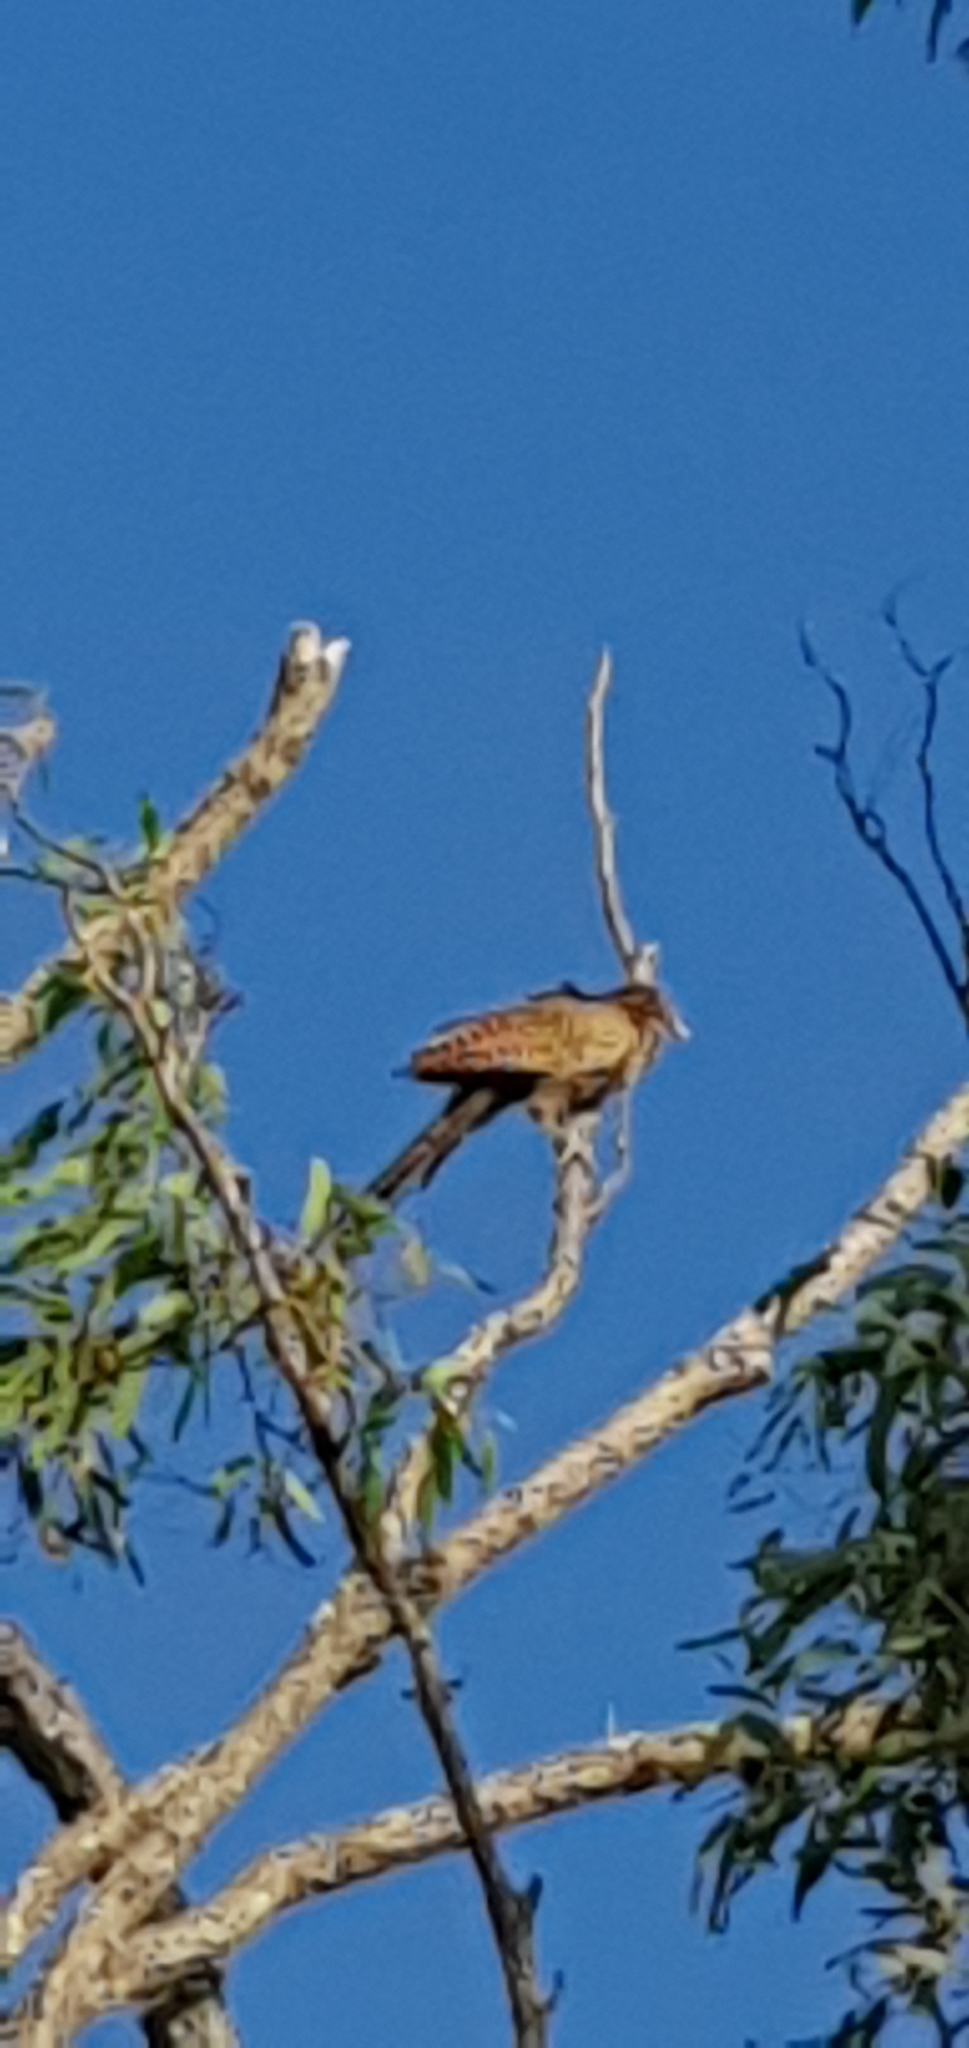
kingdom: Animalia
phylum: Chordata
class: Aves
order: Cuculiformes
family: Cuculidae
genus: Centropus
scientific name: Centropus phasianinus
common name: Pheasant coucal
